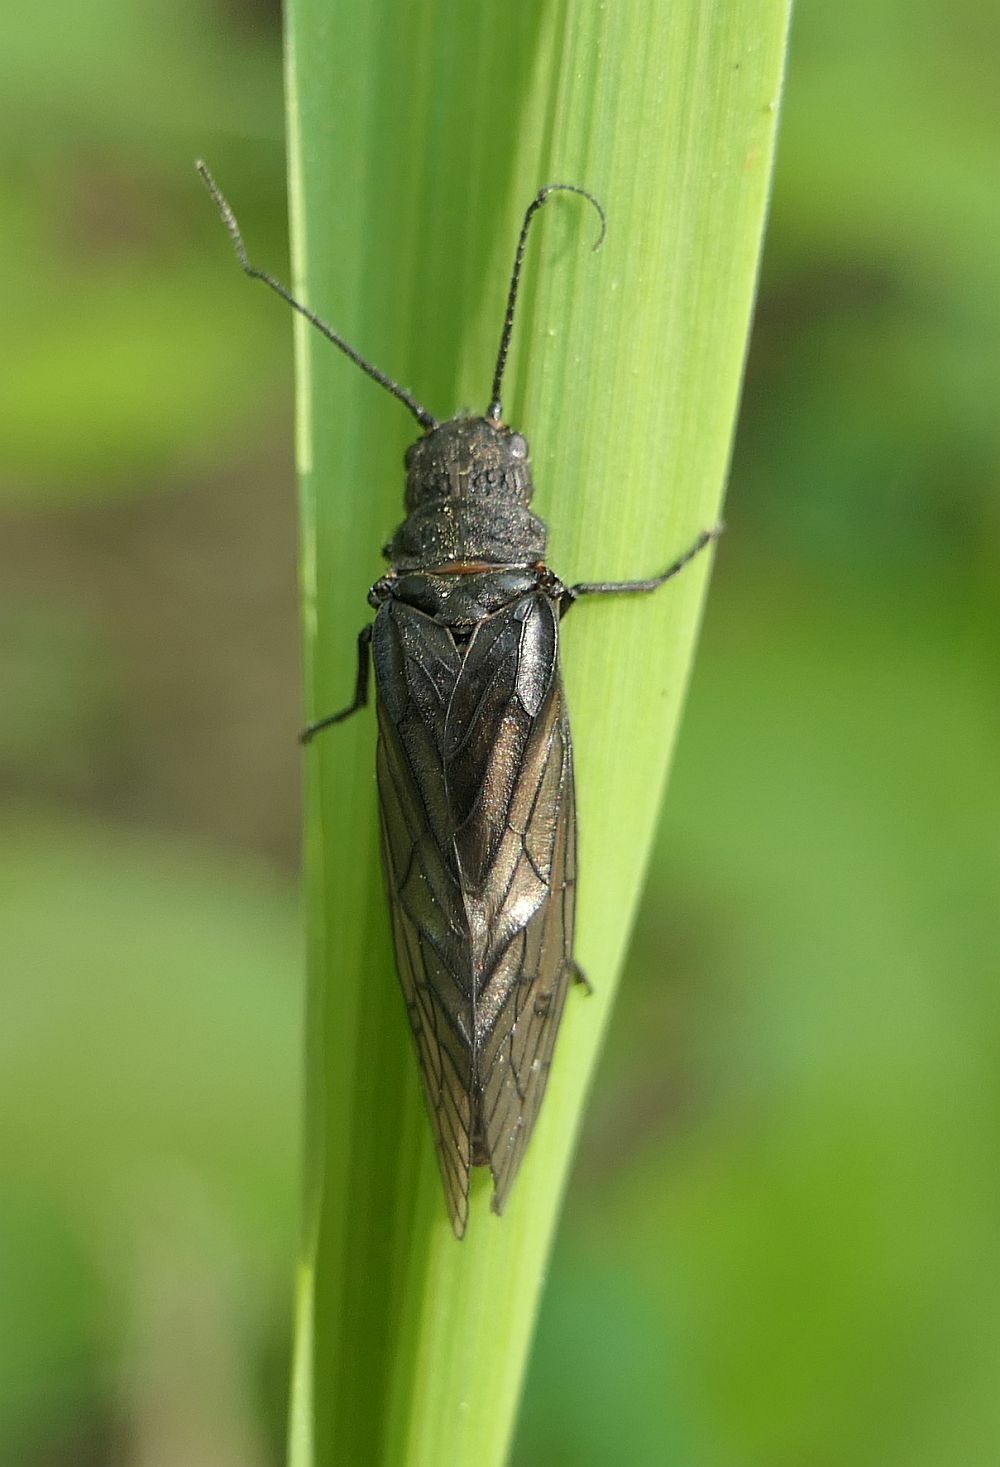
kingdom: Animalia
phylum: Arthropoda
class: Insecta
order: Megaloptera
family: Sialidae
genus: Sialis
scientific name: Sialis
